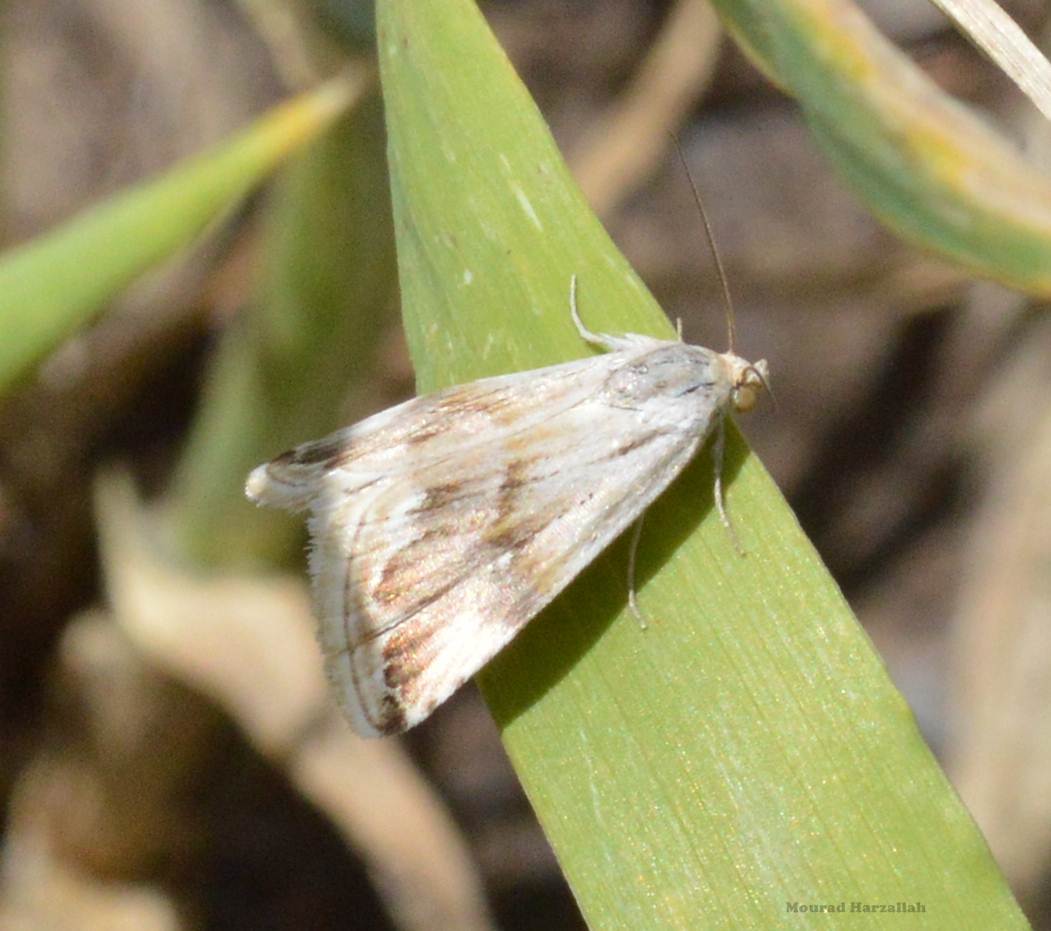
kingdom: Animalia
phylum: Arthropoda
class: Insecta
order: Lepidoptera
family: Noctuidae
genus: Eublemma
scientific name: Eublemma ostrina
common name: Purple marbled
